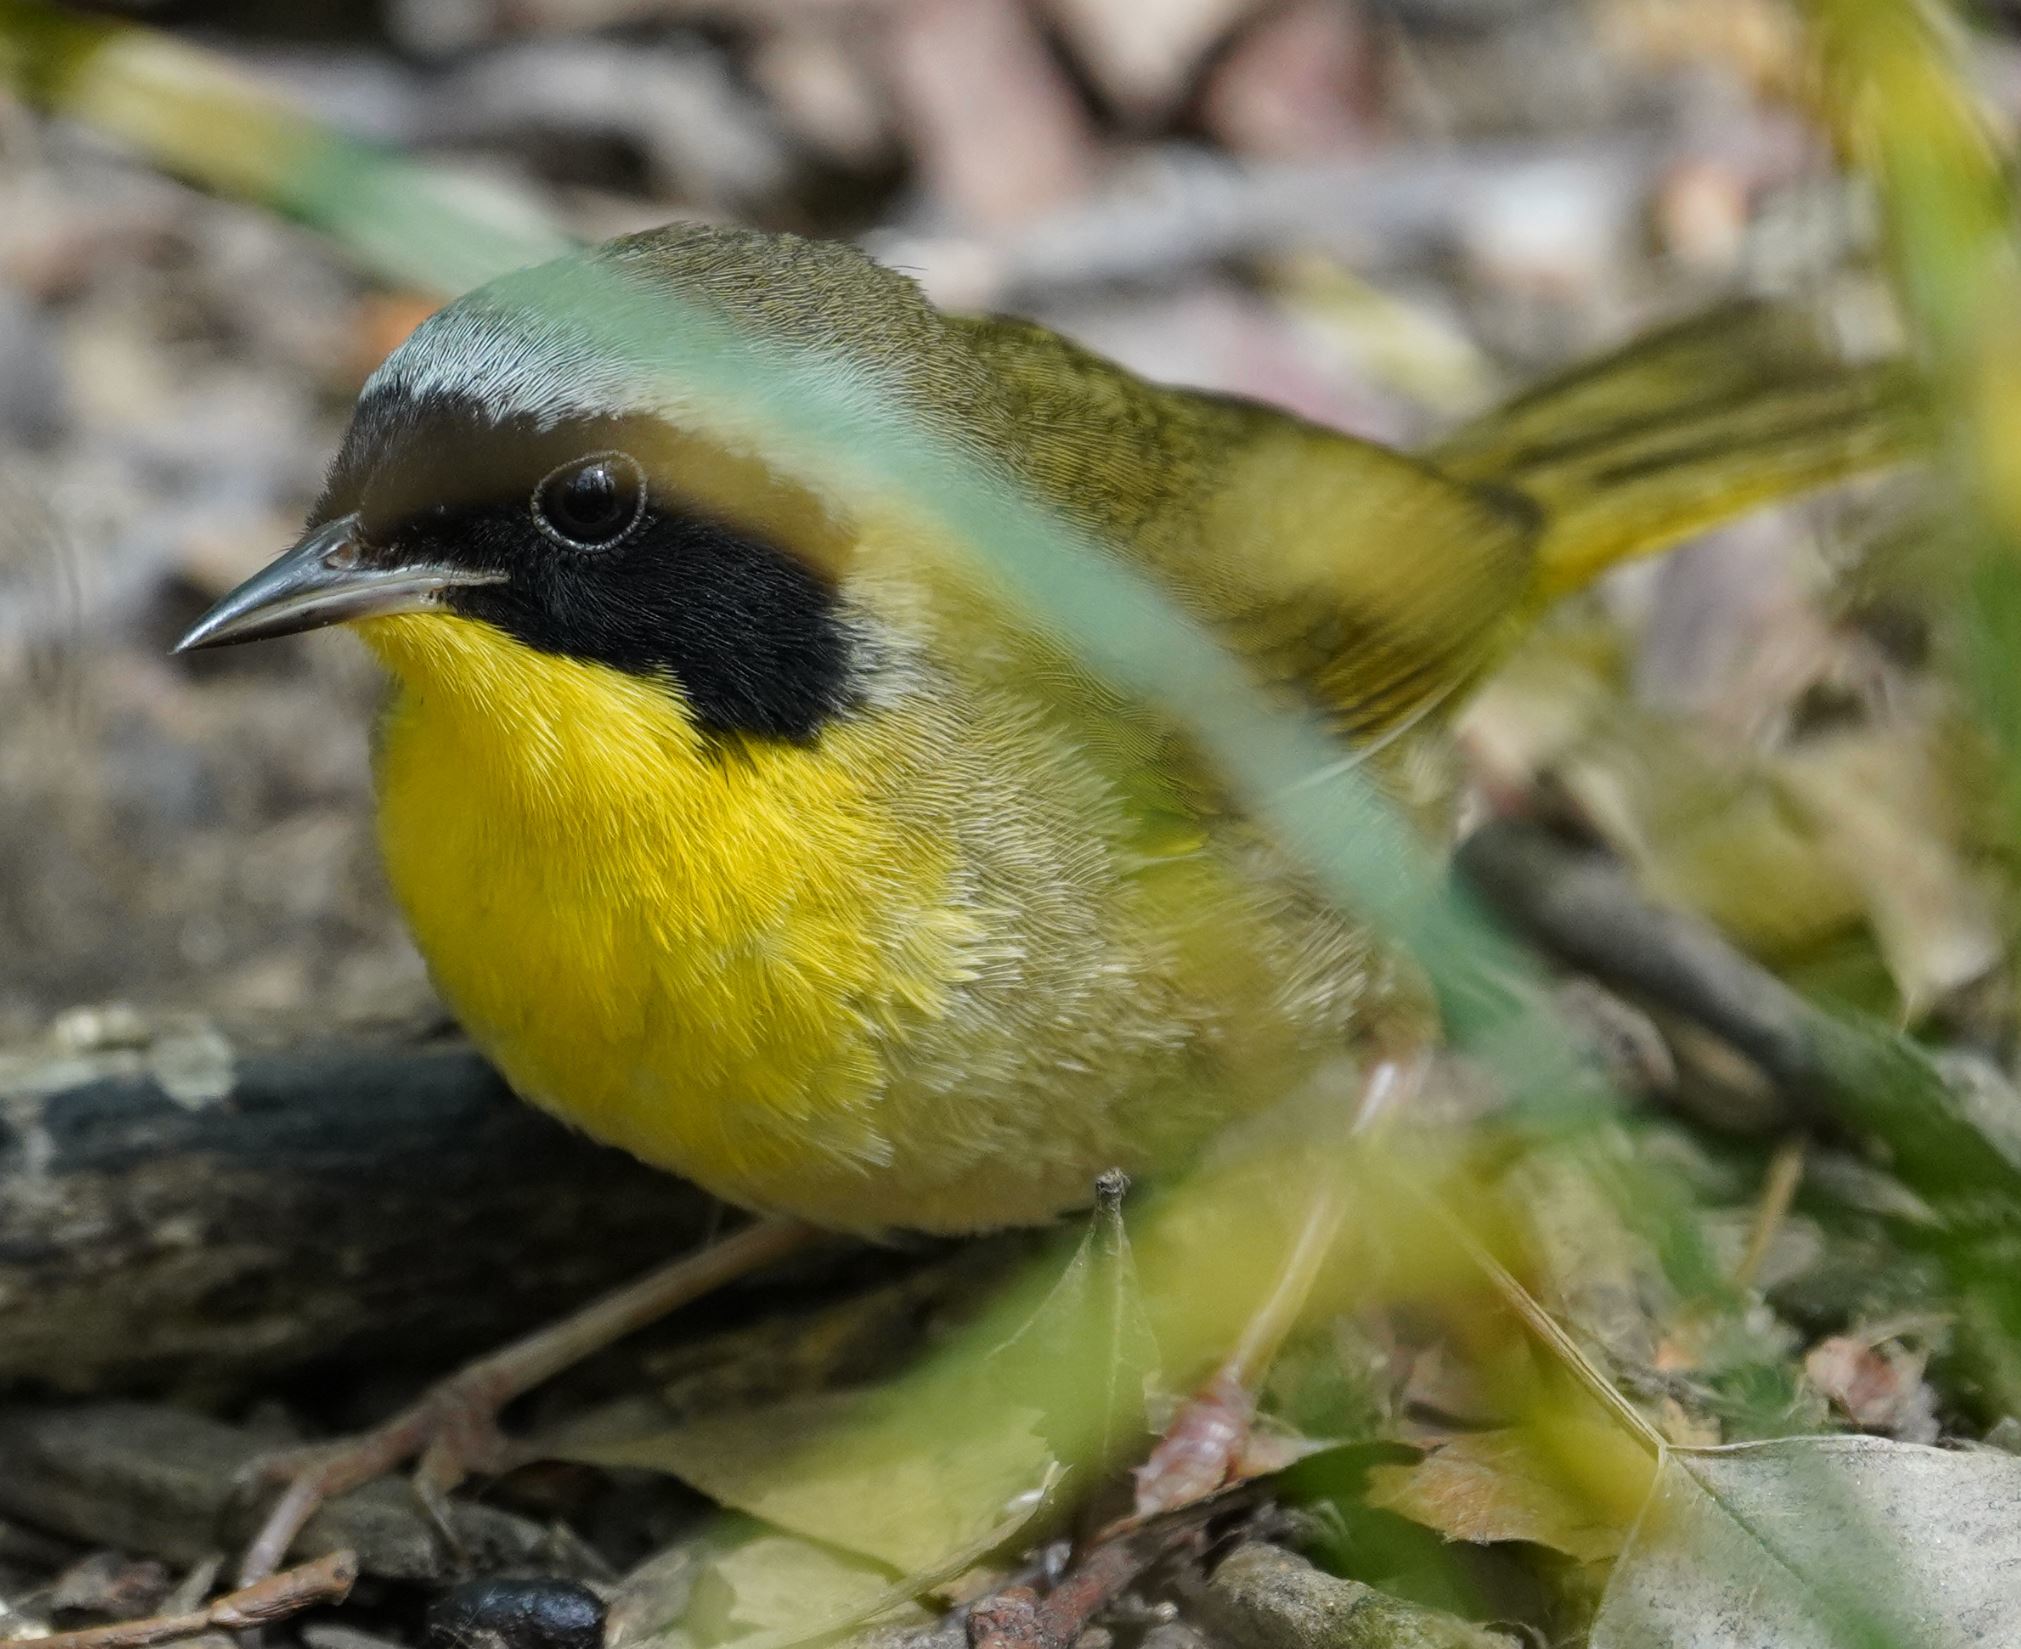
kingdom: Animalia
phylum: Chordata
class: Aves
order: Passeriformes
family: Parulidae
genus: Geothlypis
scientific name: Geothlypis trichas
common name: Common yellowthroat
